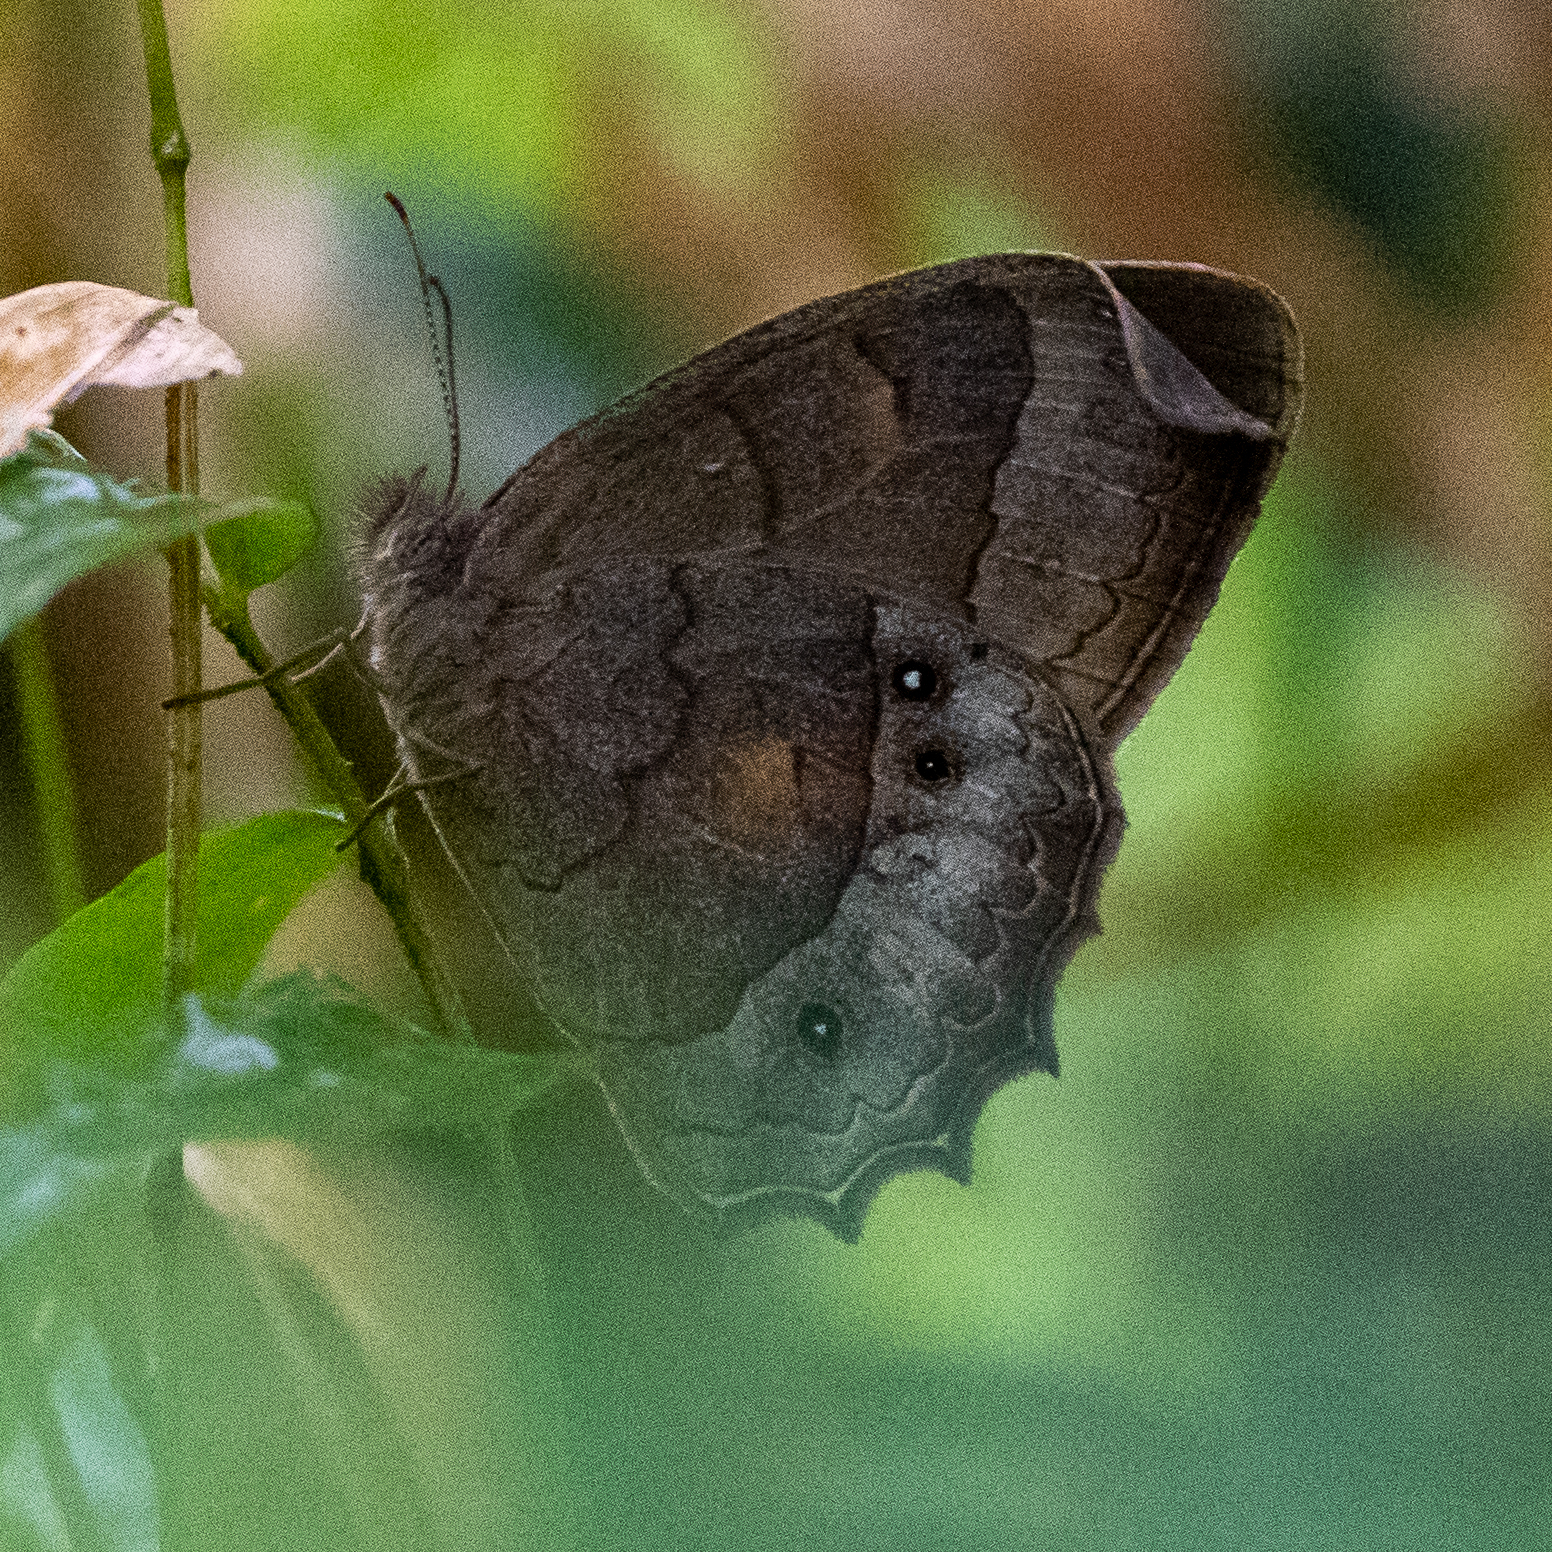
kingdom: Animalia
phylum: Arthropoda
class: Insecta
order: Lepidoptera
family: Nymphalidae
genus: Taygetina
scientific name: Taygetina kerea
